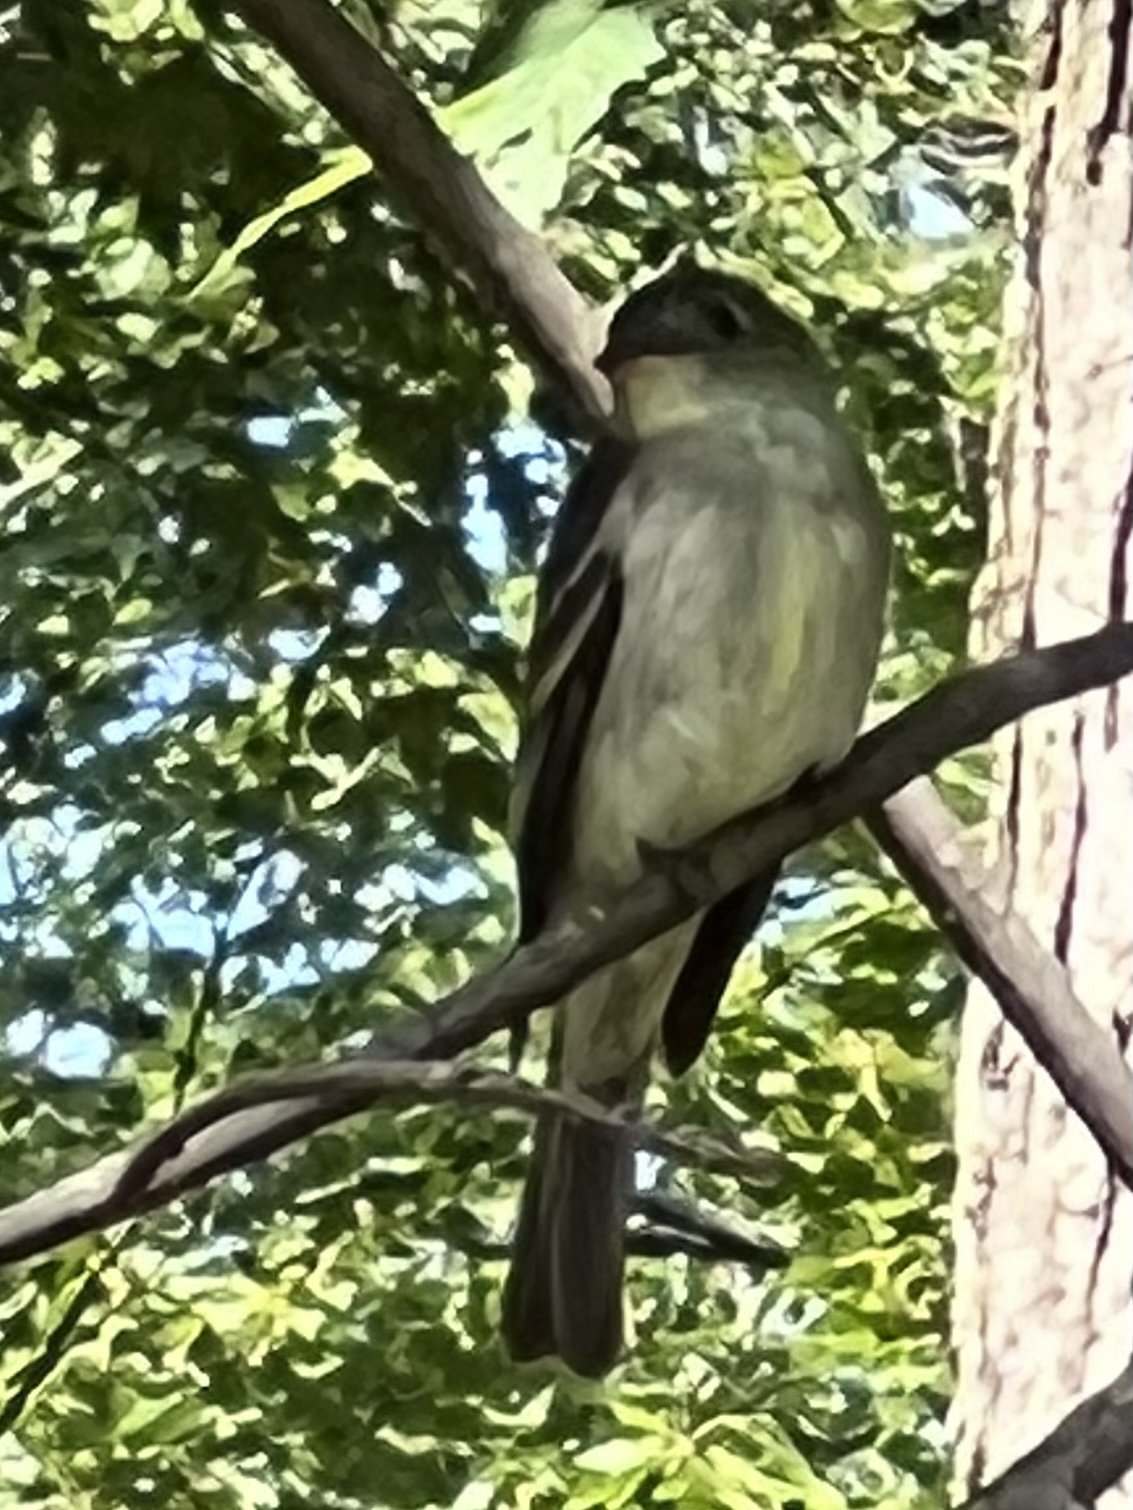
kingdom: Animalia
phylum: Chordata
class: Aves
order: Passeriformes
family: Tyrannidae
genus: Contopus
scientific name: Contopus virens
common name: Eastern wood-pewee
